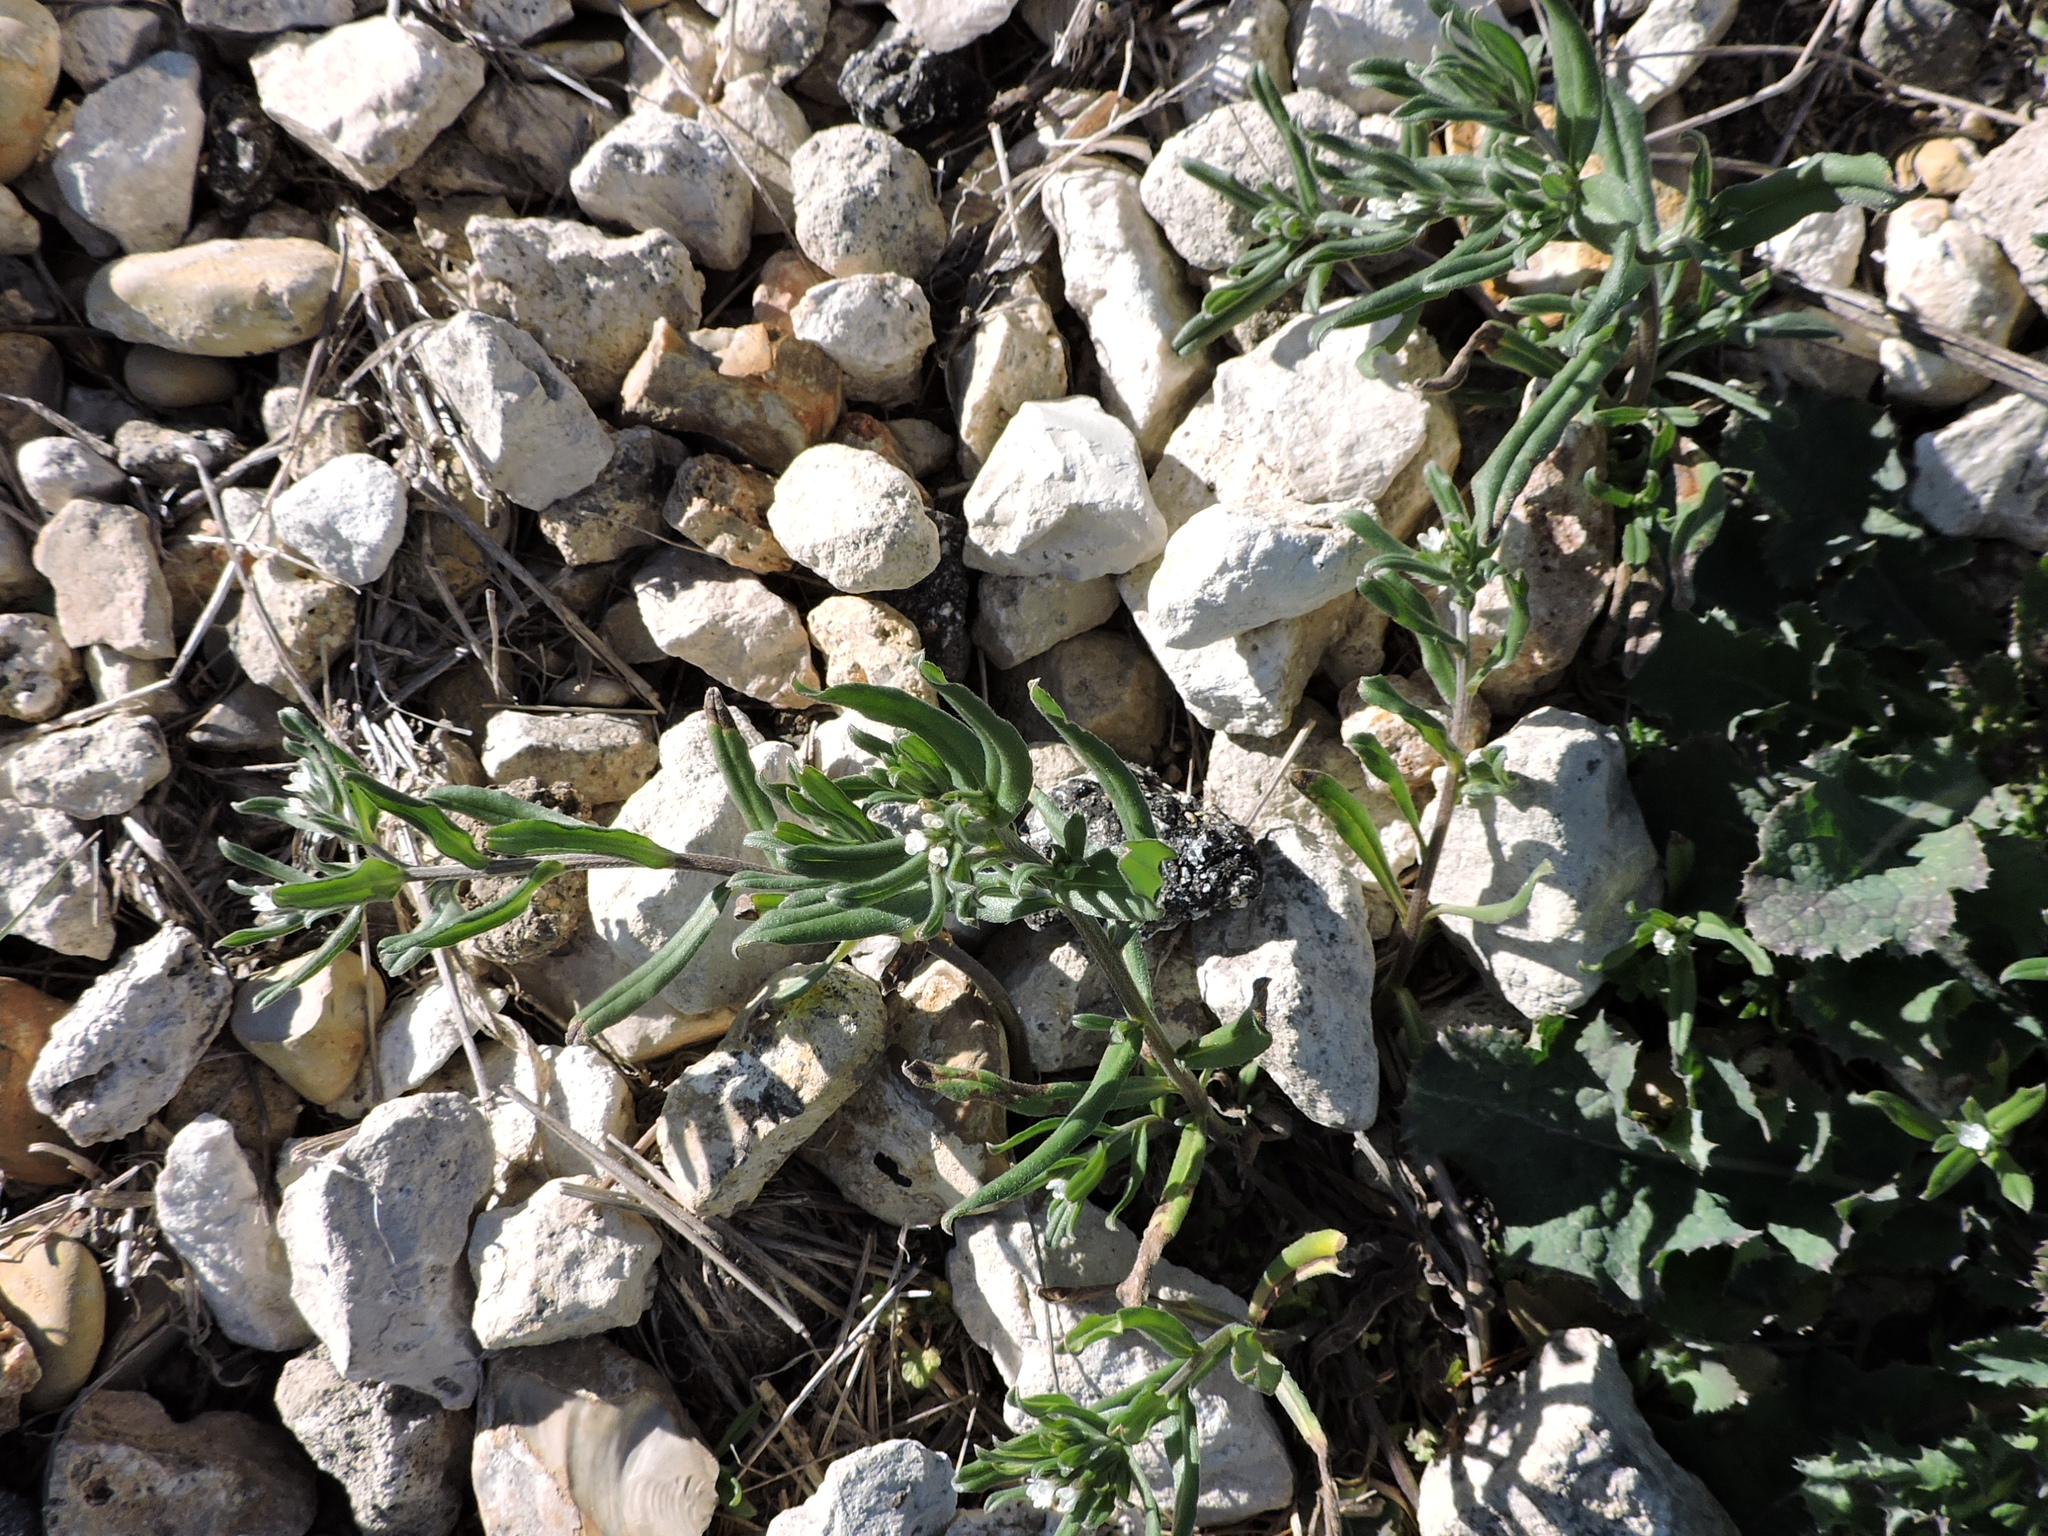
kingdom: Plantae
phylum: Tracheophyta
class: Magnoliopsida
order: Boraginales
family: Boraginaceae
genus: Buglossoides
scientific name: Buglossoides arvensis
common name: Corn gromwell
